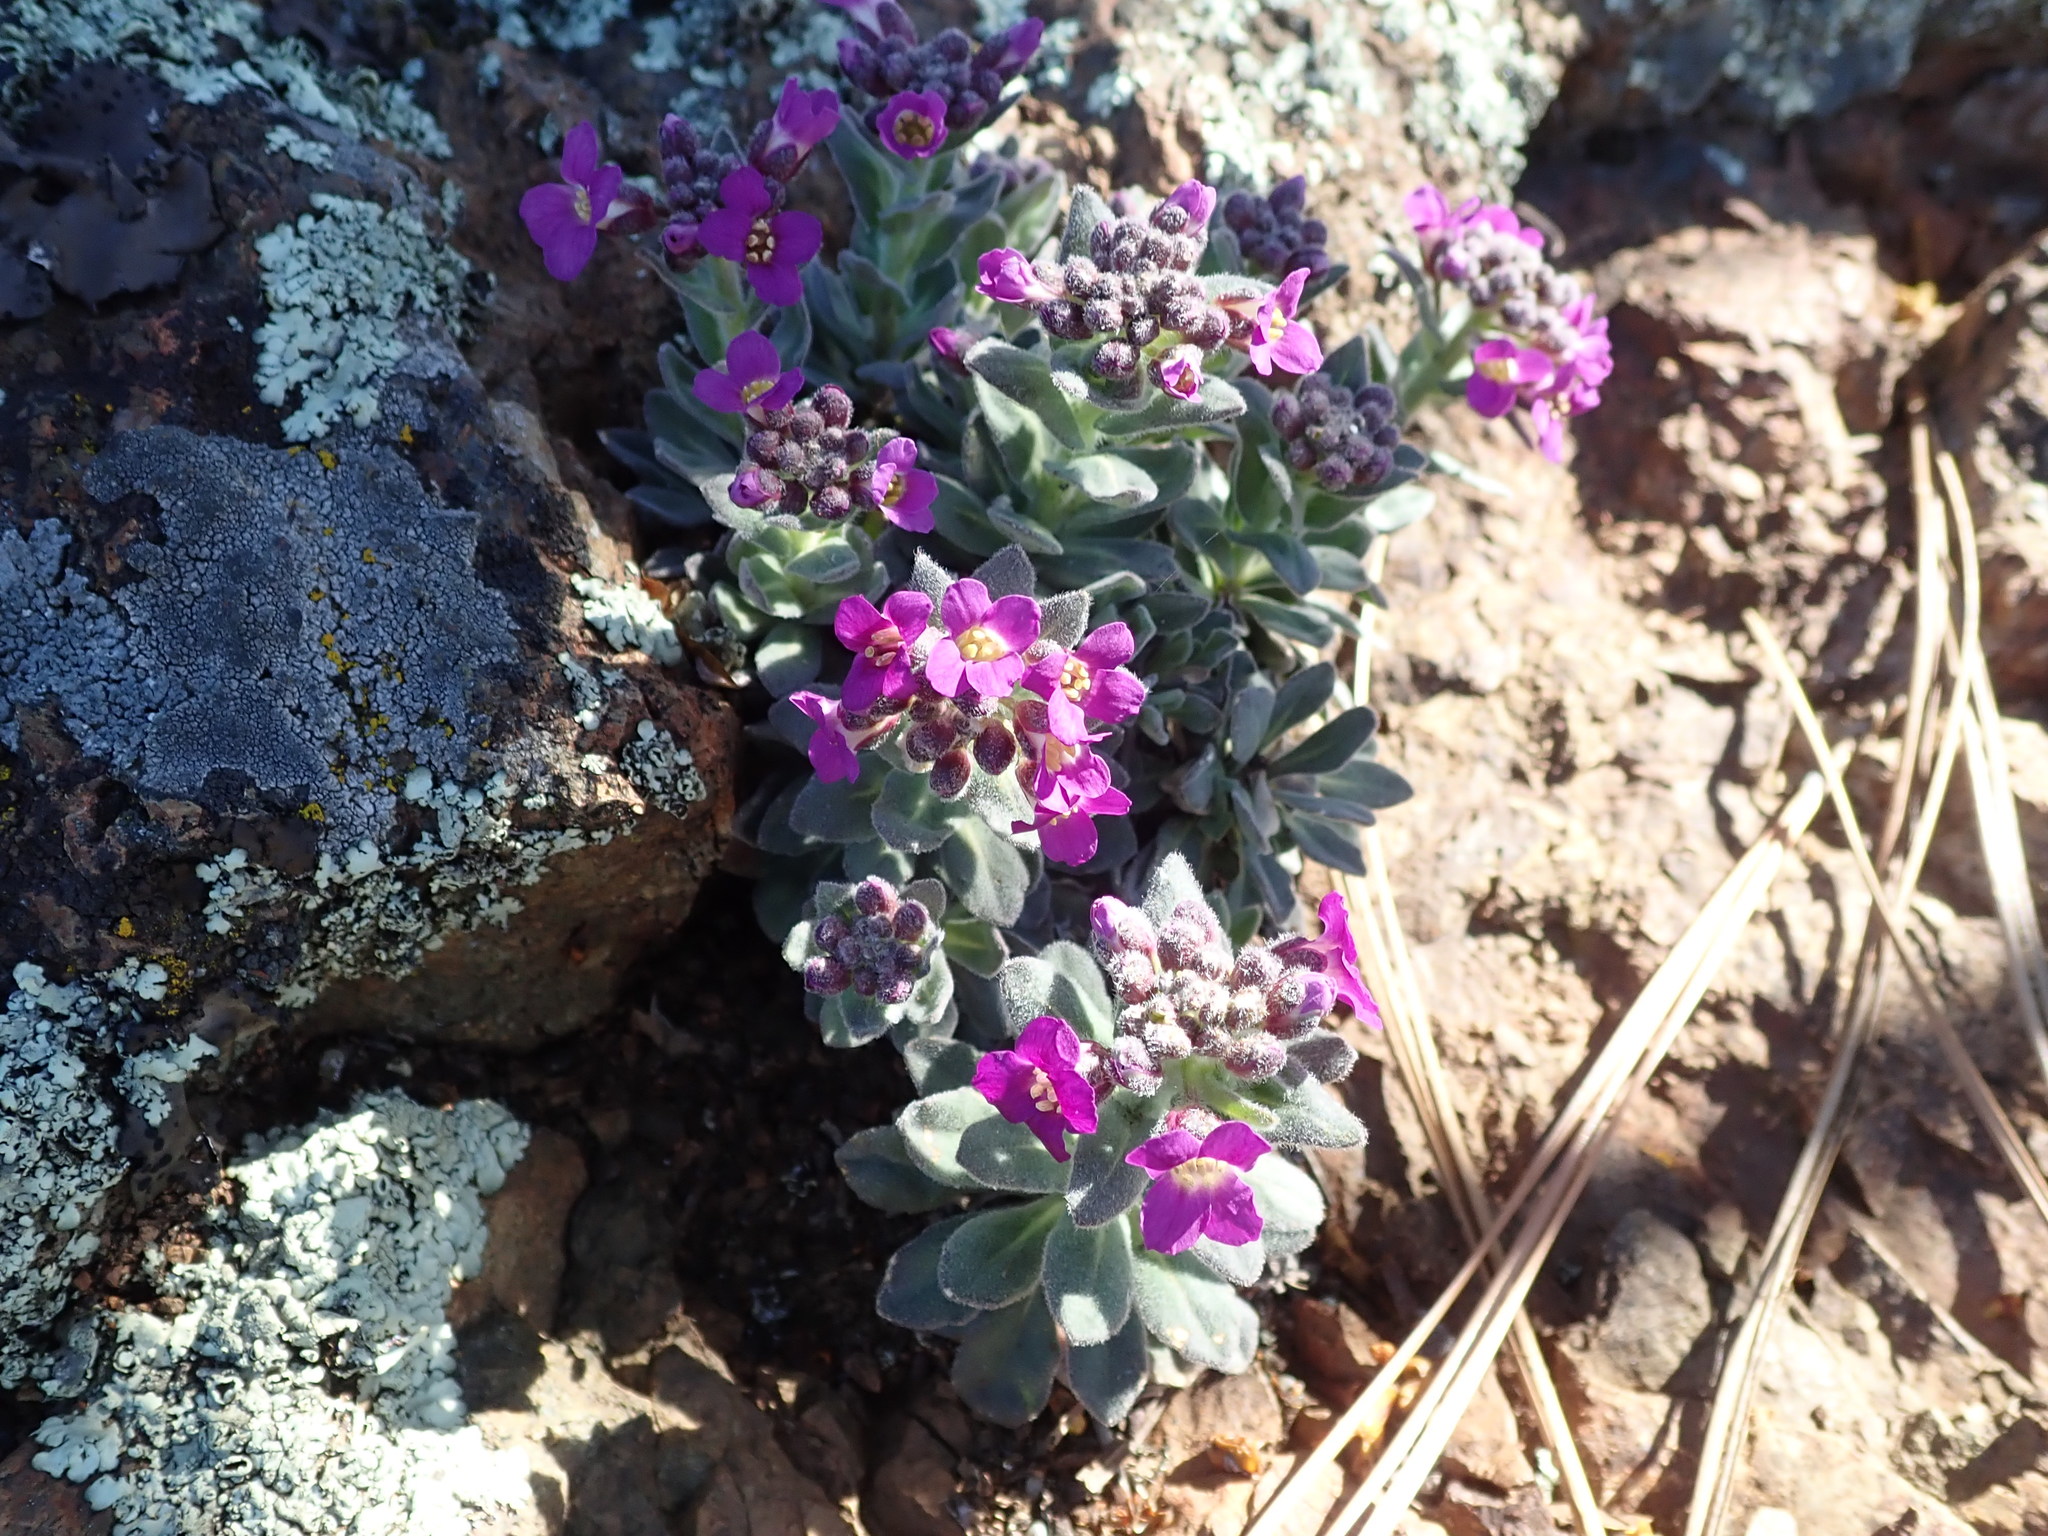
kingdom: Plantae
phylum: Tracheophyta
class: Magnoliopsida
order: Brassicales
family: Brassicaceae
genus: Boechera
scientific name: Boechera breweri
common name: Brewer's rockcress
